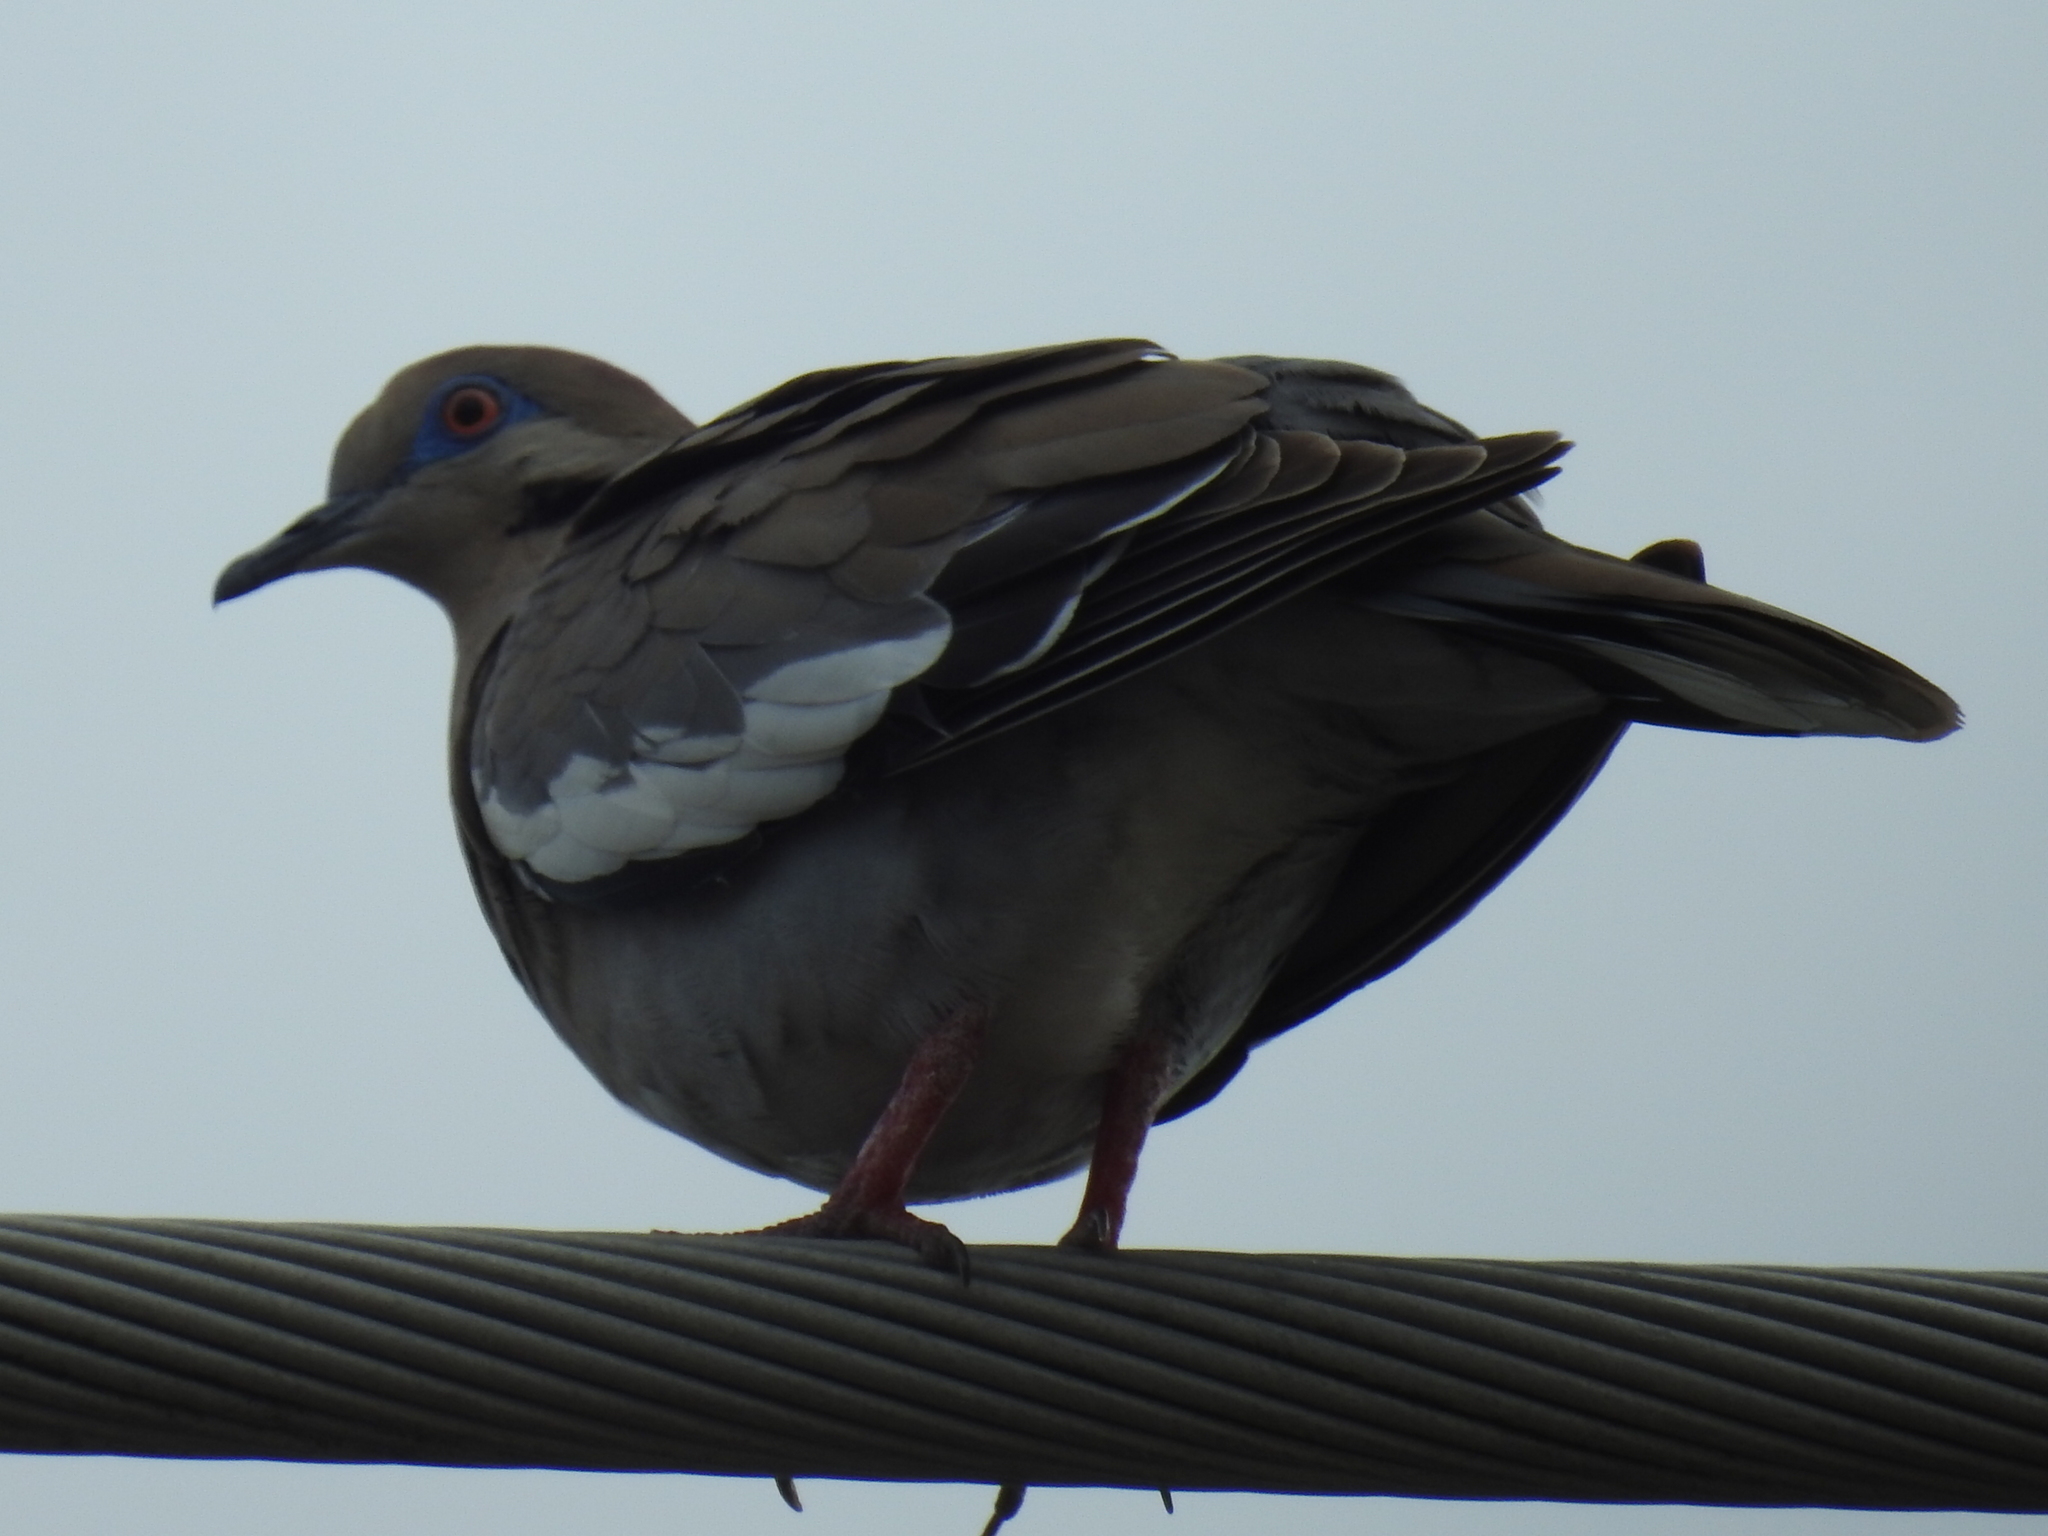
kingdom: Animalia
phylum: Chordata
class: Aves
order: Columbiformes
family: Columbidae
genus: Zenaida
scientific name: Zenaida asiatica
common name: White-winged dove
